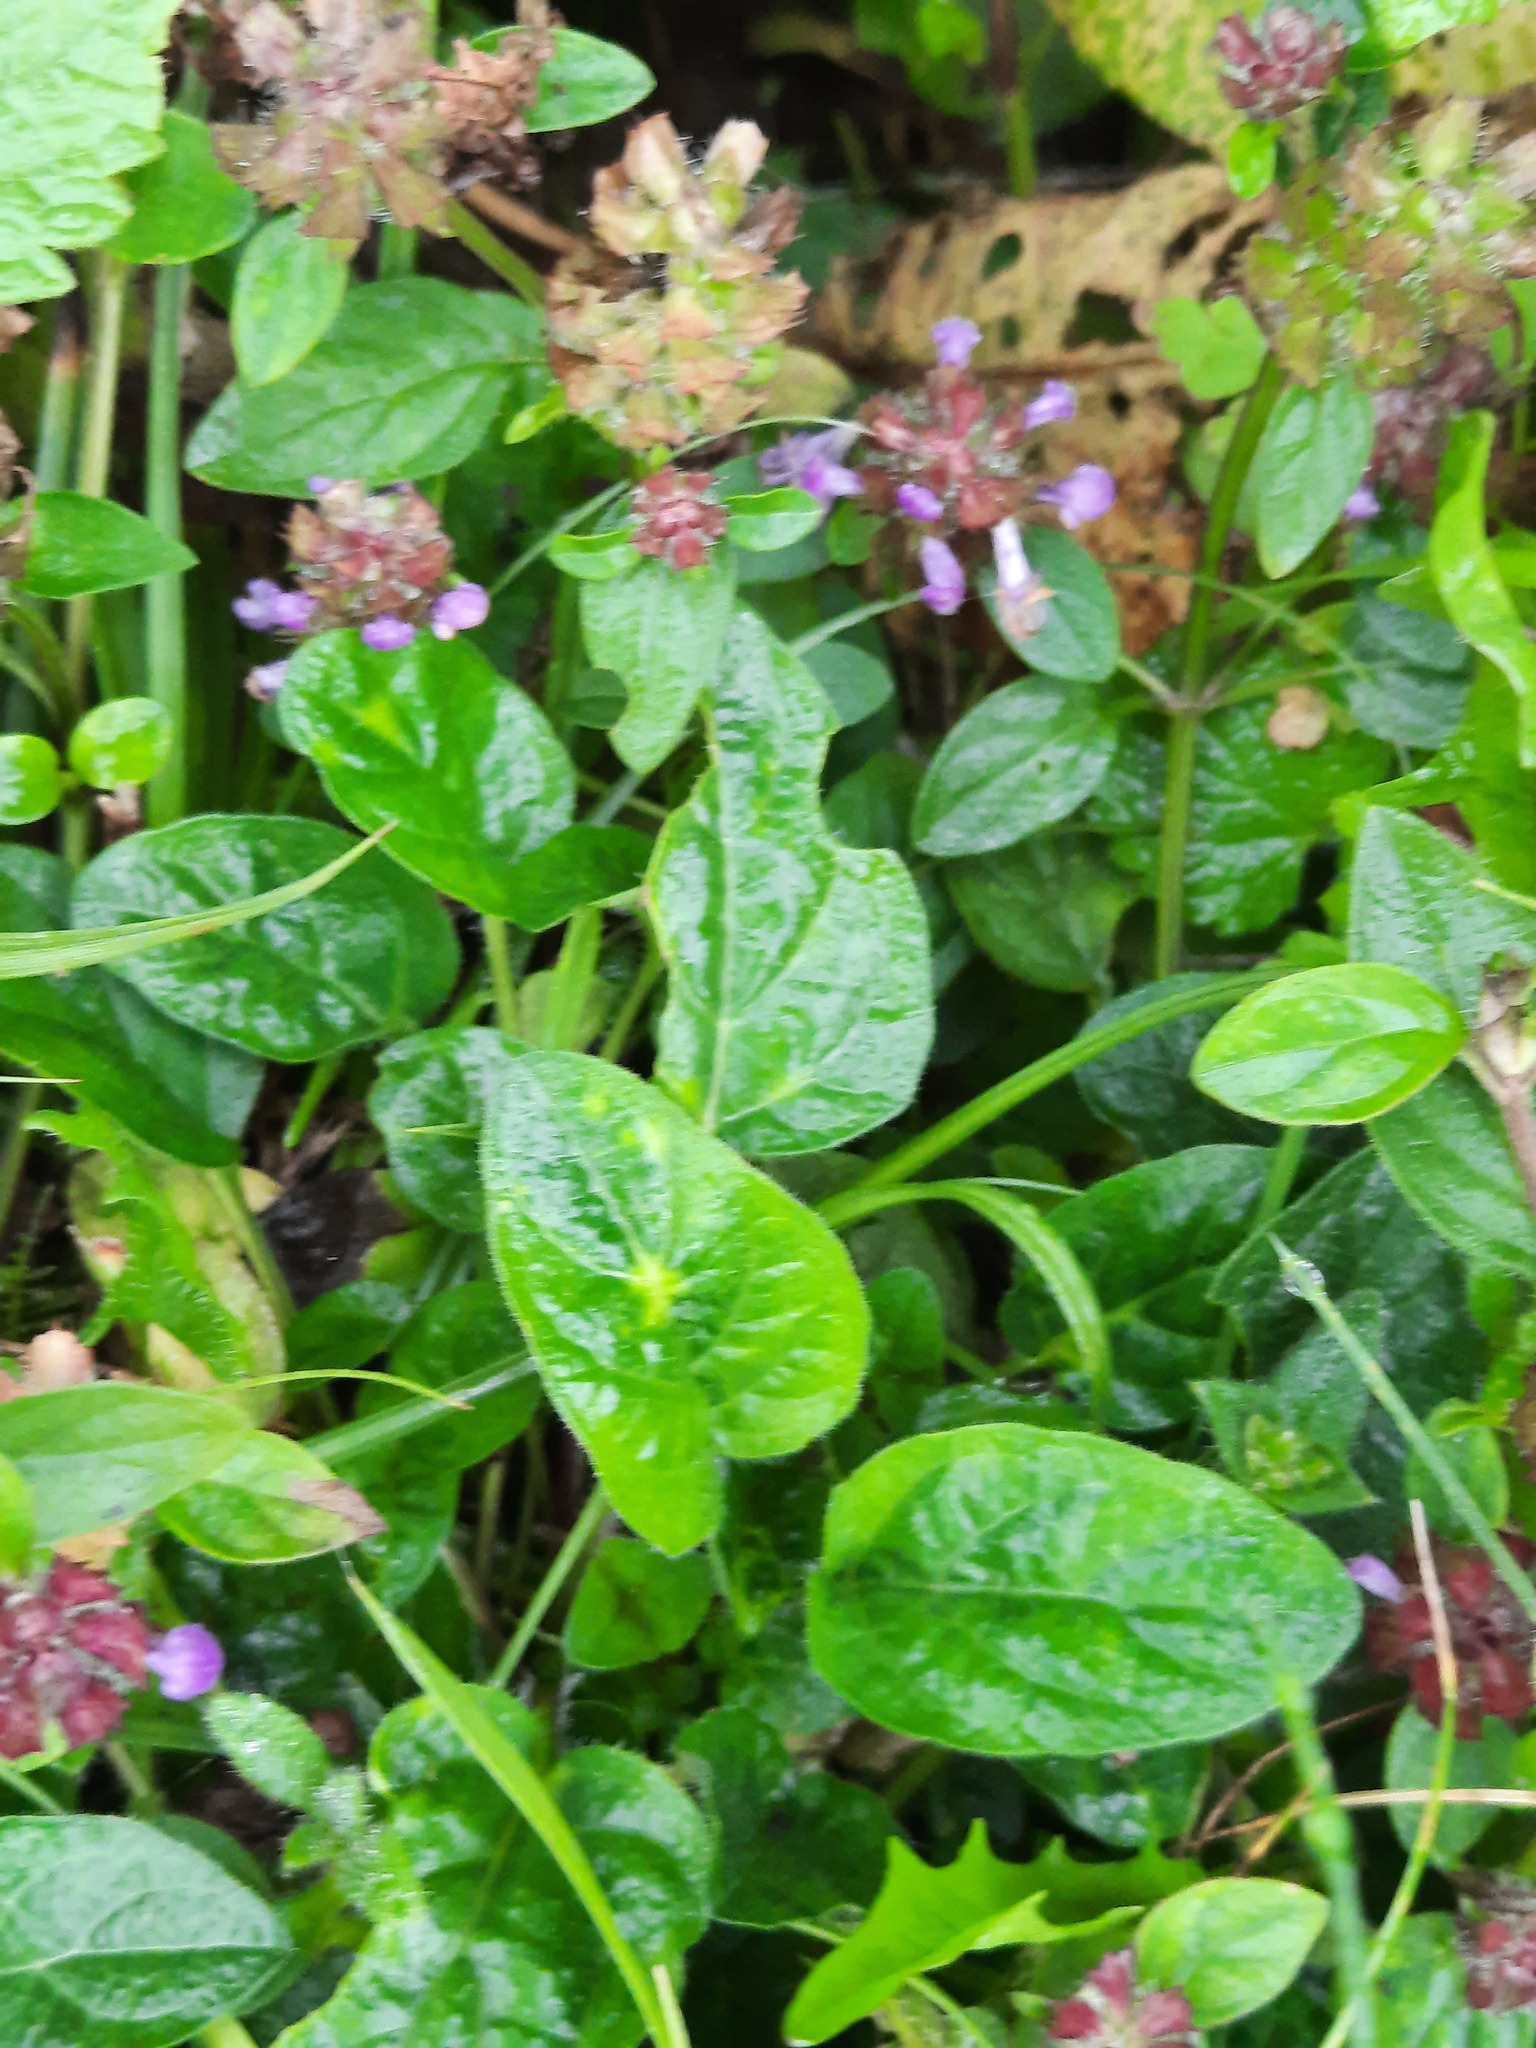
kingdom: Plantae
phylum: Tracheophyta
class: Magnoliopsida
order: Lamiales
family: Lamiaceae
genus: Prunella
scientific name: Prunella vulgaris
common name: Heal-all
